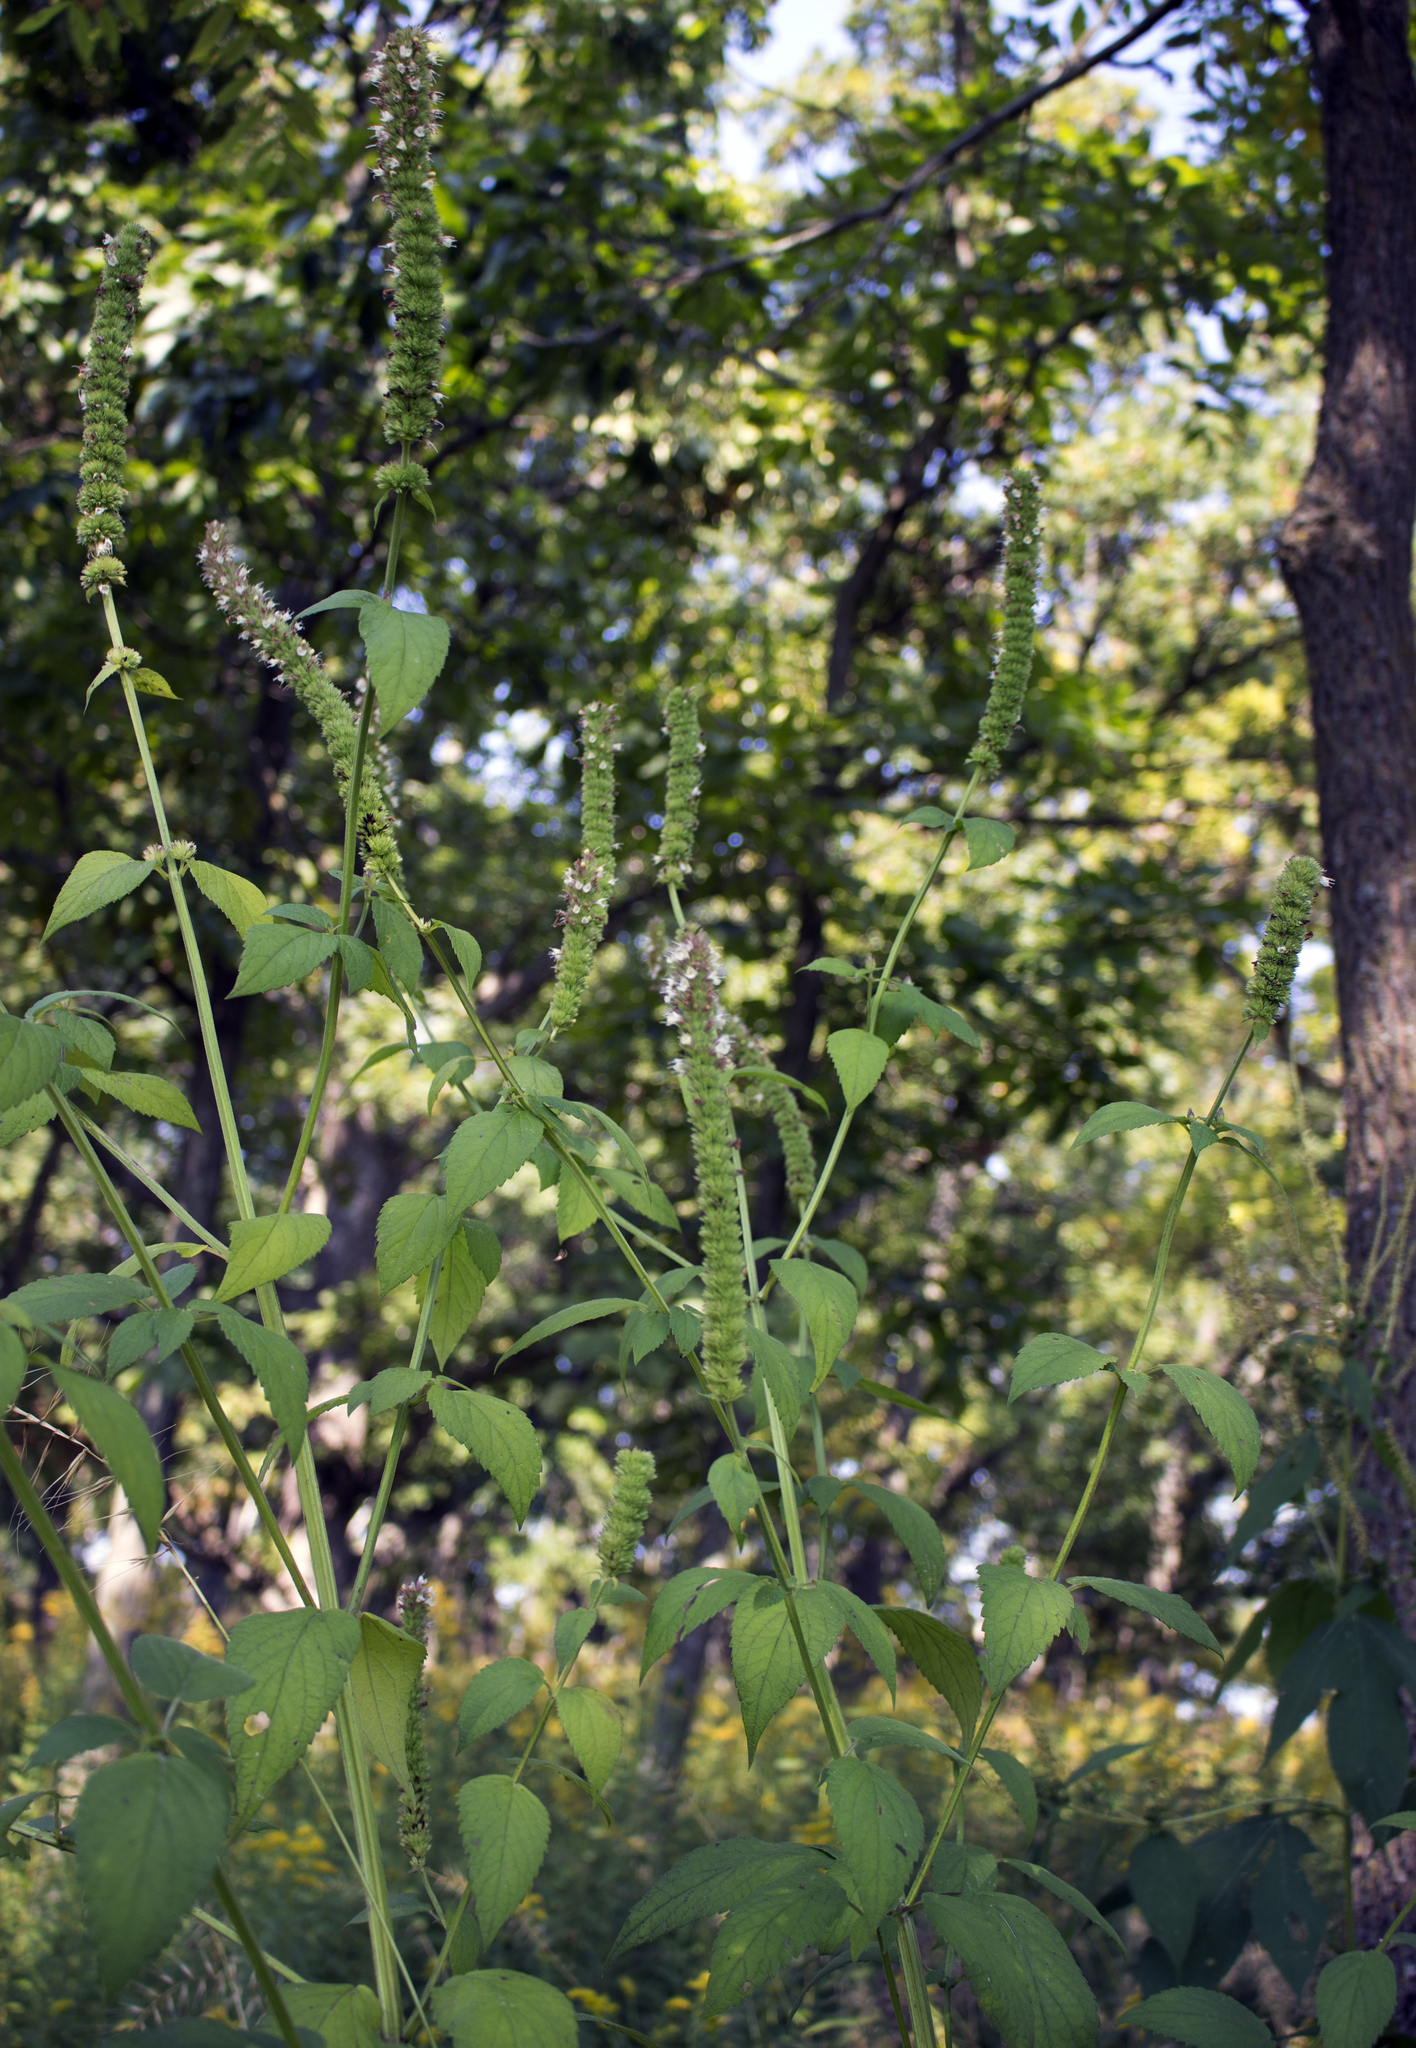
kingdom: Plantae
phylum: Tracheophyta
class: Magnoliopsida
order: Lamiales
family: Lamiaceae
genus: Agastache
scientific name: Agastache scrophulariifolia
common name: Figwort giant hyssop
